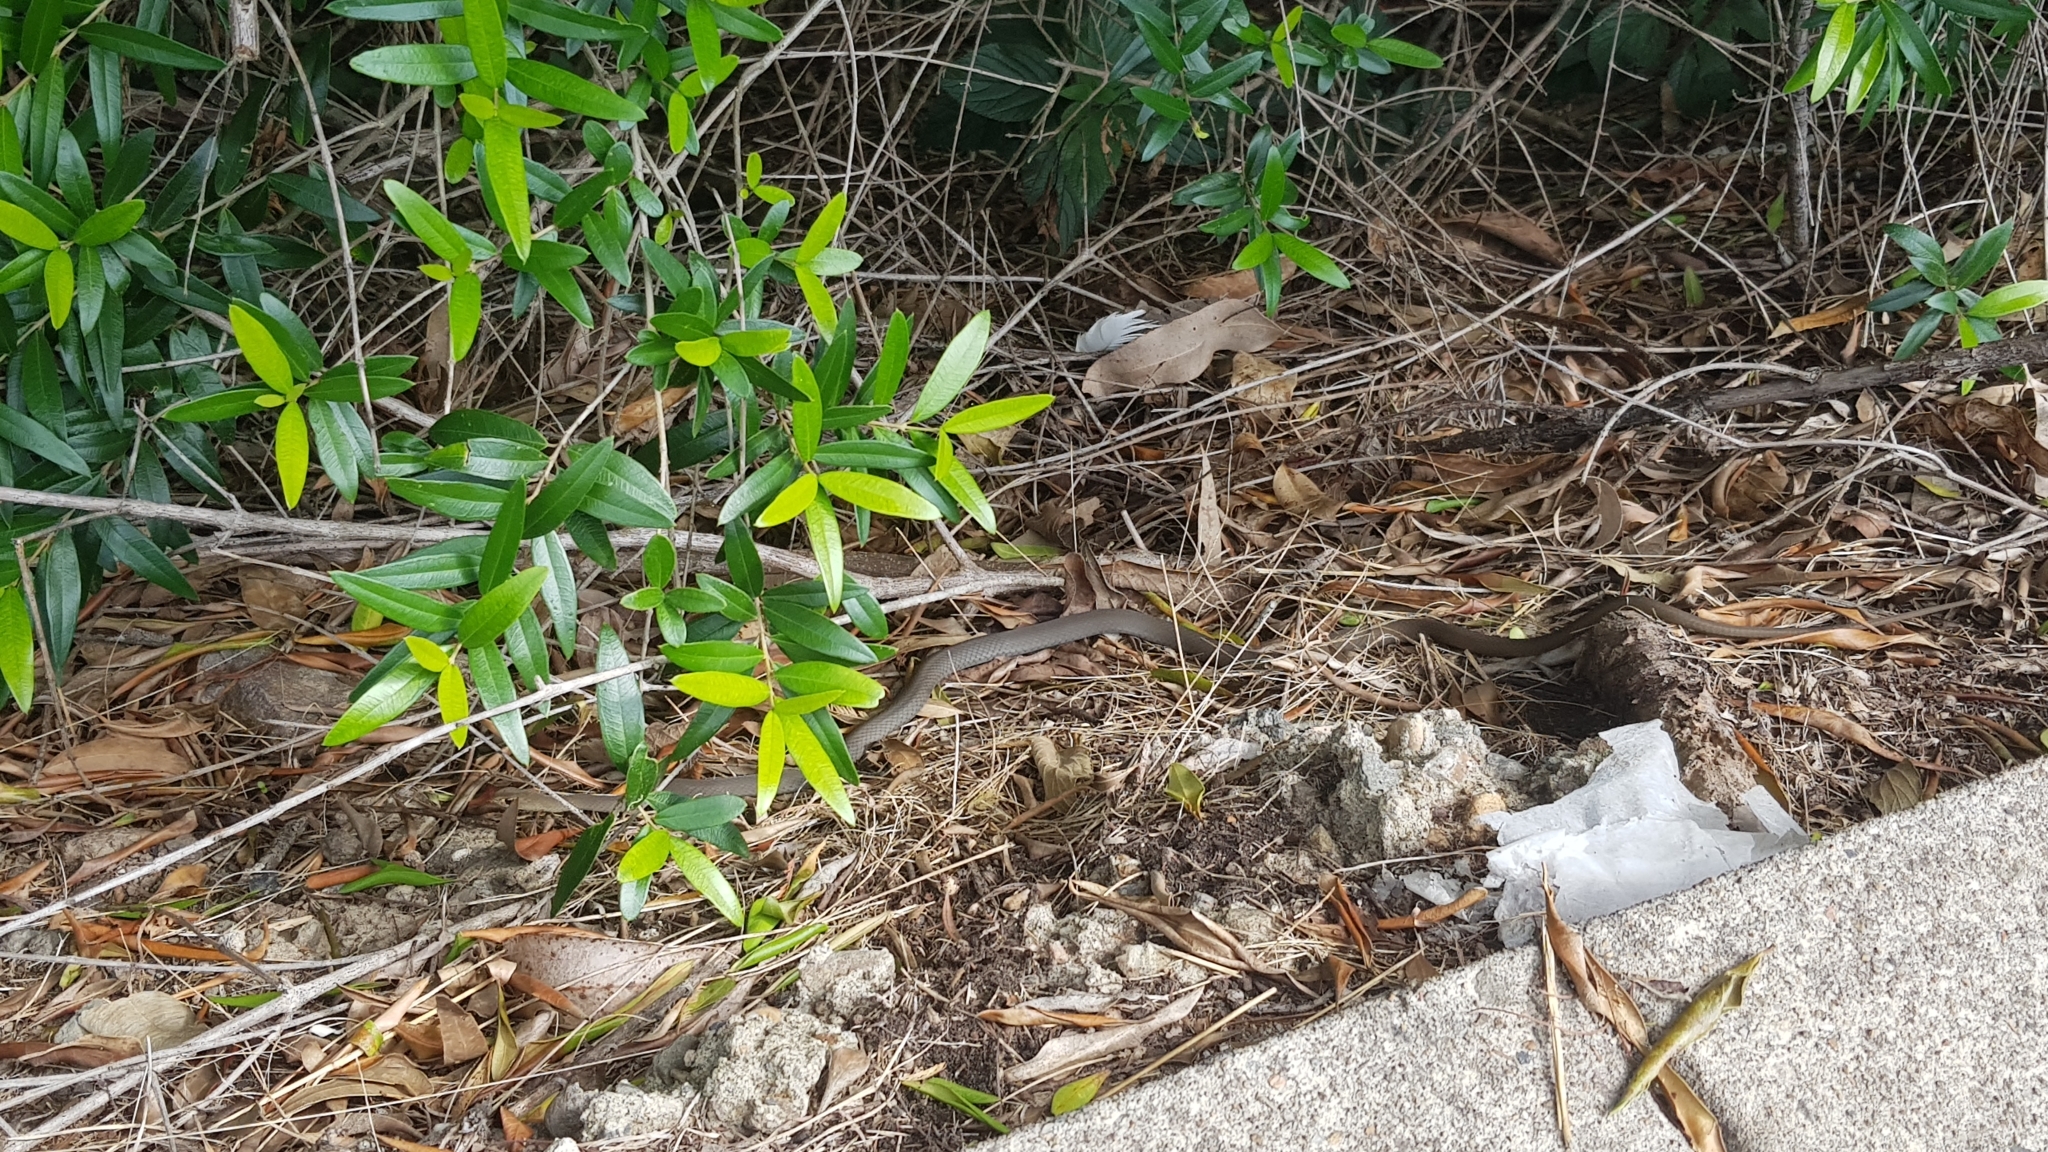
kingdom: Animalia
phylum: Chordata
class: Squamata
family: Elapidae
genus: Demansia
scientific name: Demansia psammophis
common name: Yellow-faced whip snake
